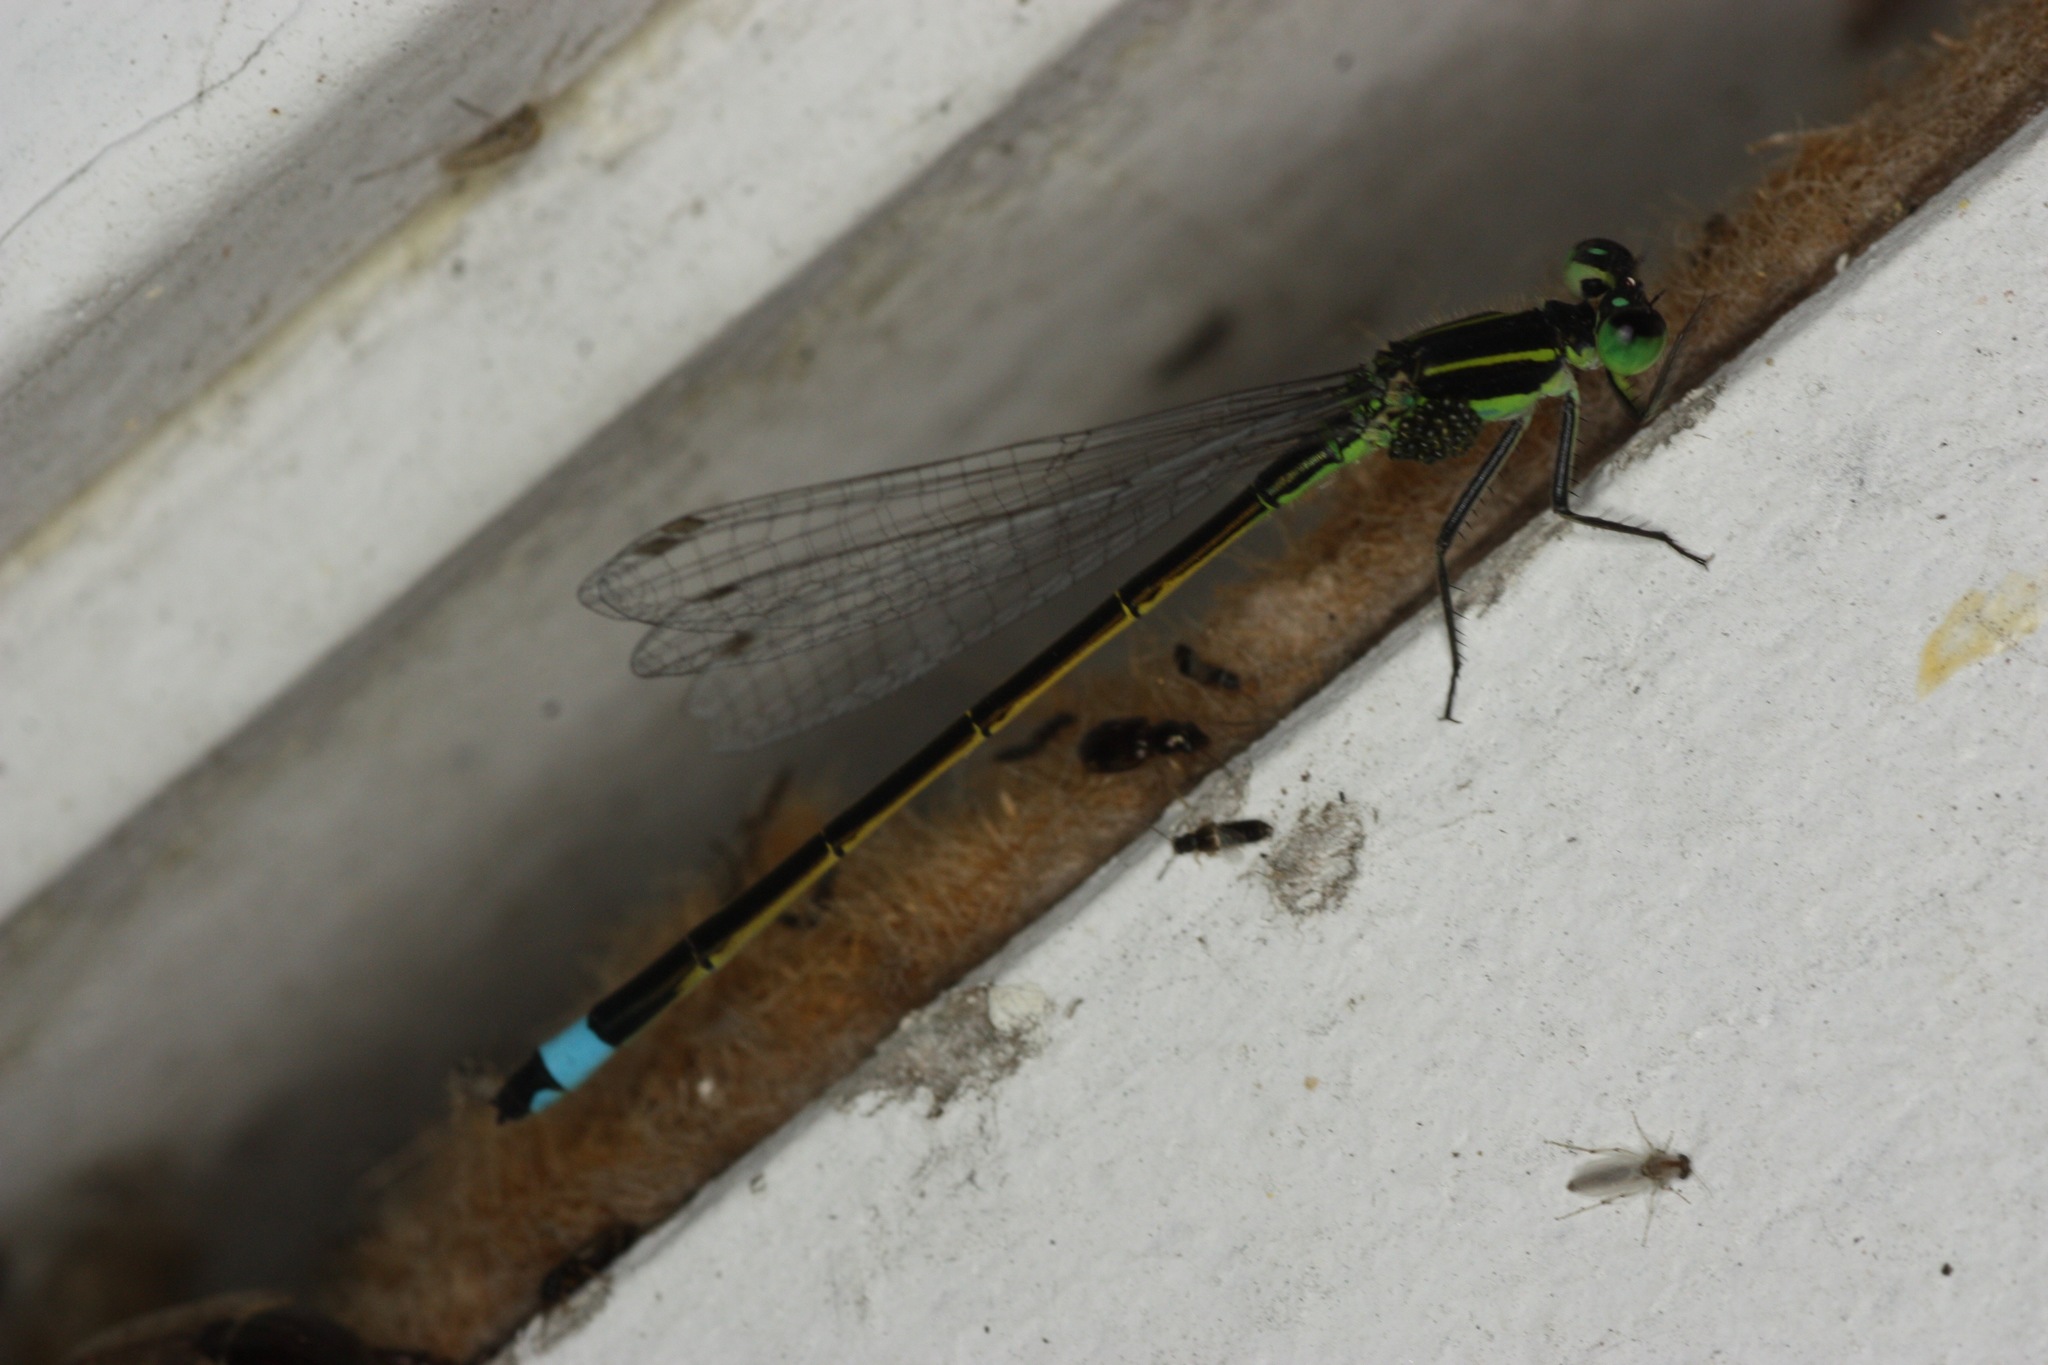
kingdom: Animalia
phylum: Arthropoda
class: Insecta
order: Odonata
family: Coenagrionidae
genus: Ischnura
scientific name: Ischnura ramburii
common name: Rambur's forktail
